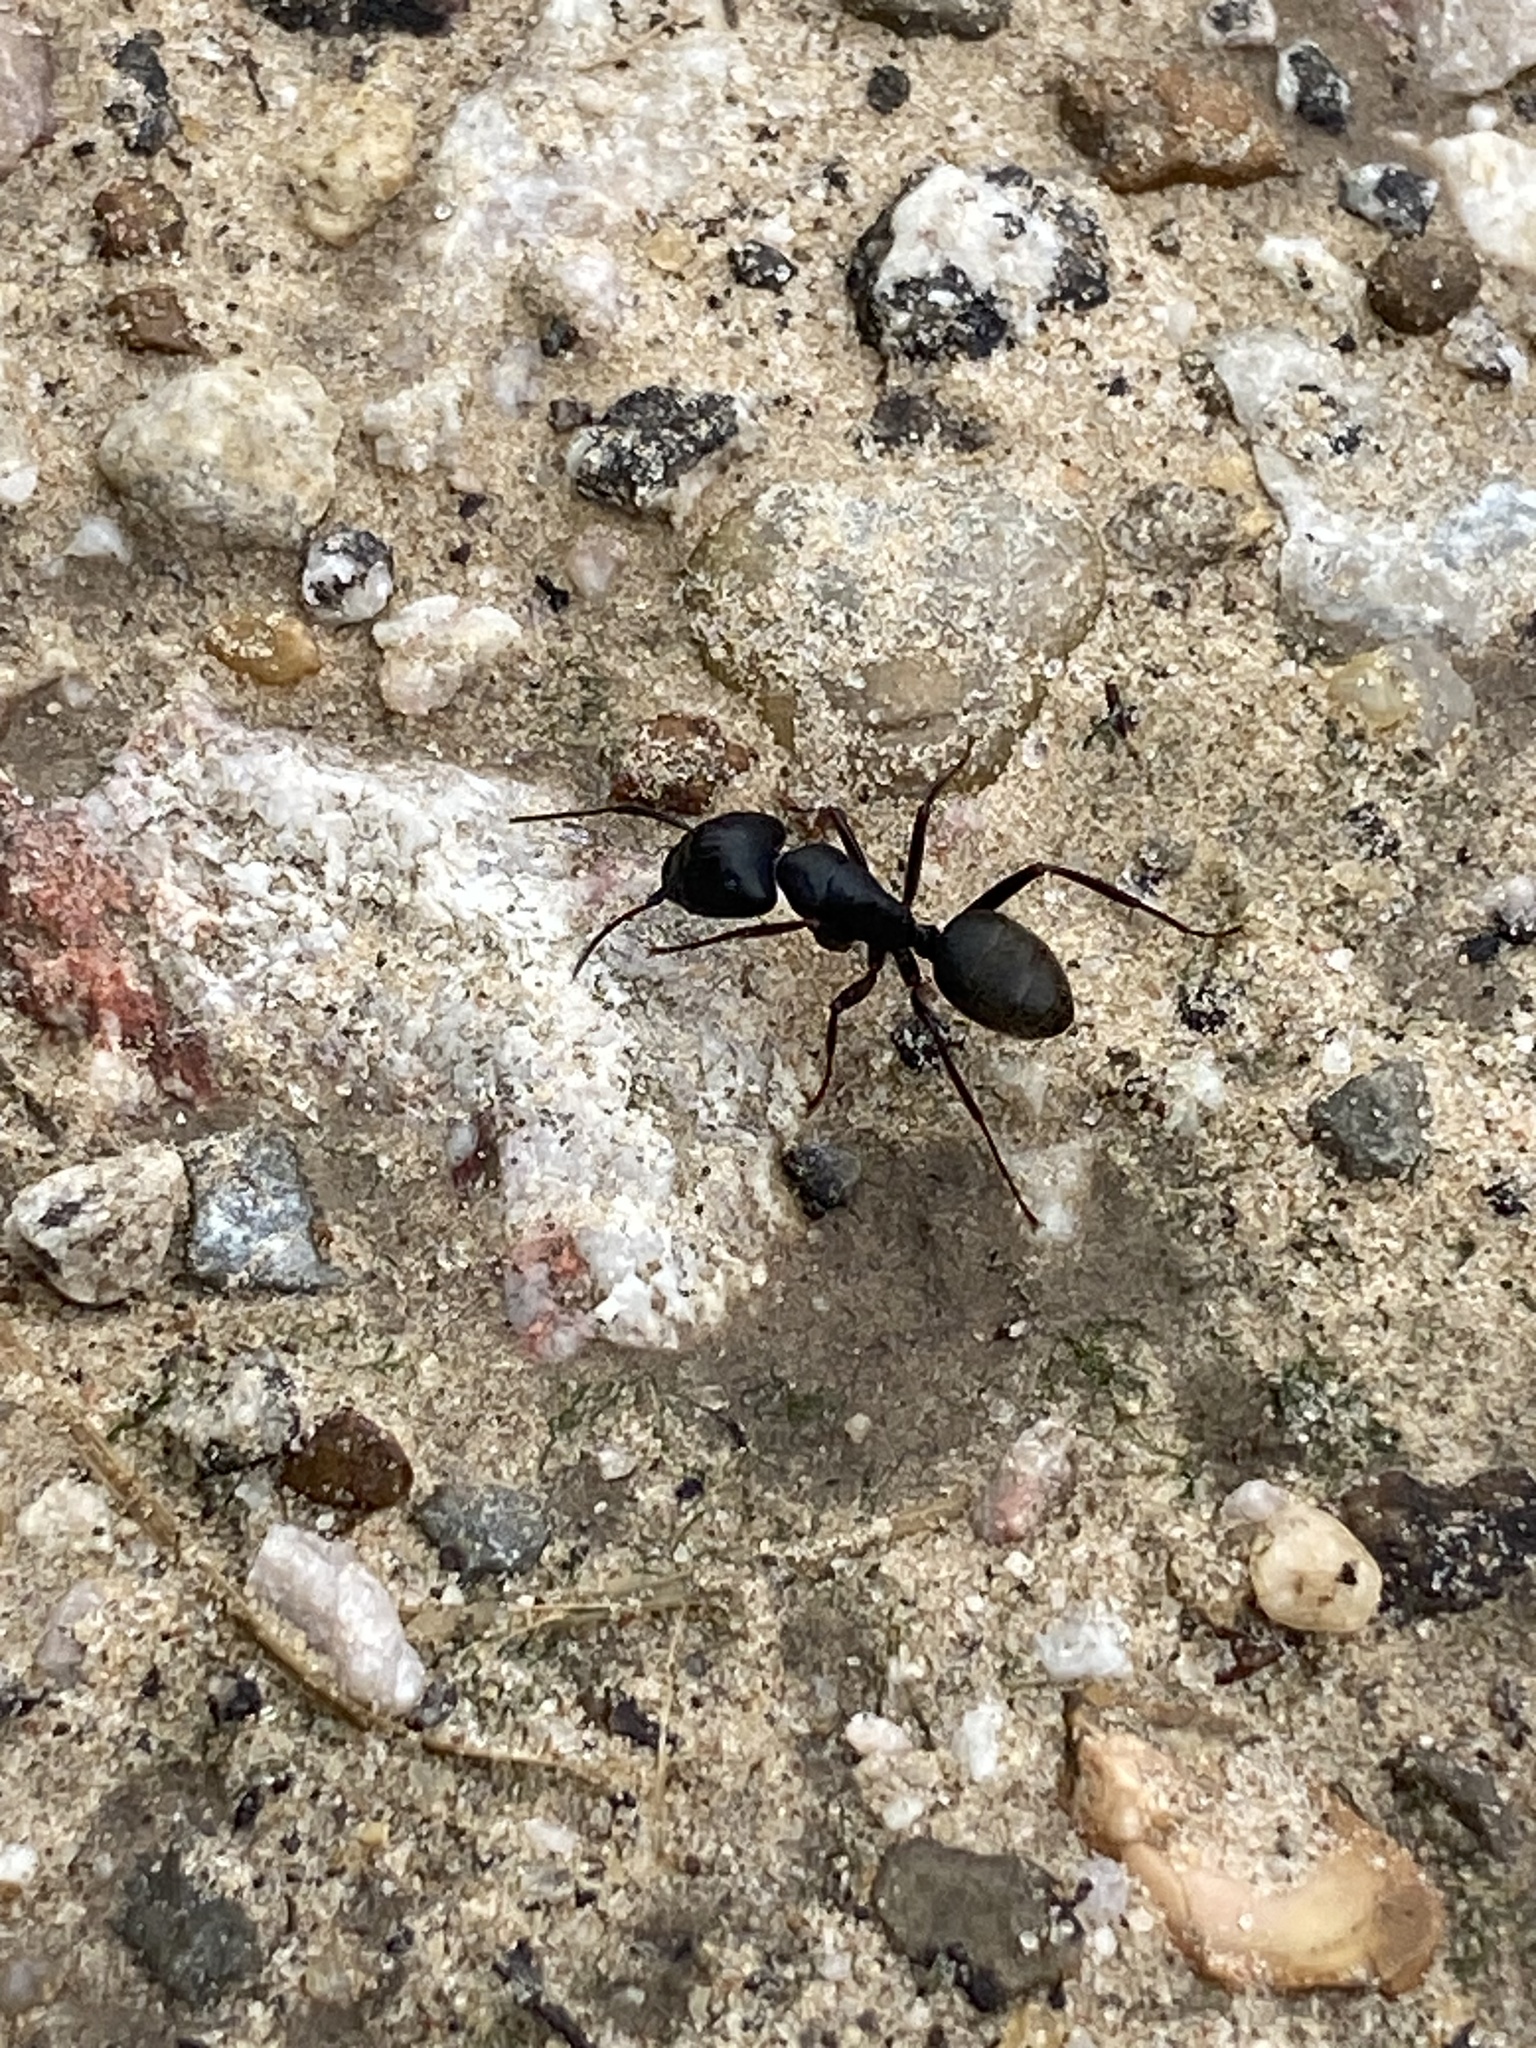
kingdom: Animalia
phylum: Arthropoda
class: Insecta
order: Hymenoptera
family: Formicidae
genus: Camponotus
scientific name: Camponotus pennsylvanicus
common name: Black carpenter ant
